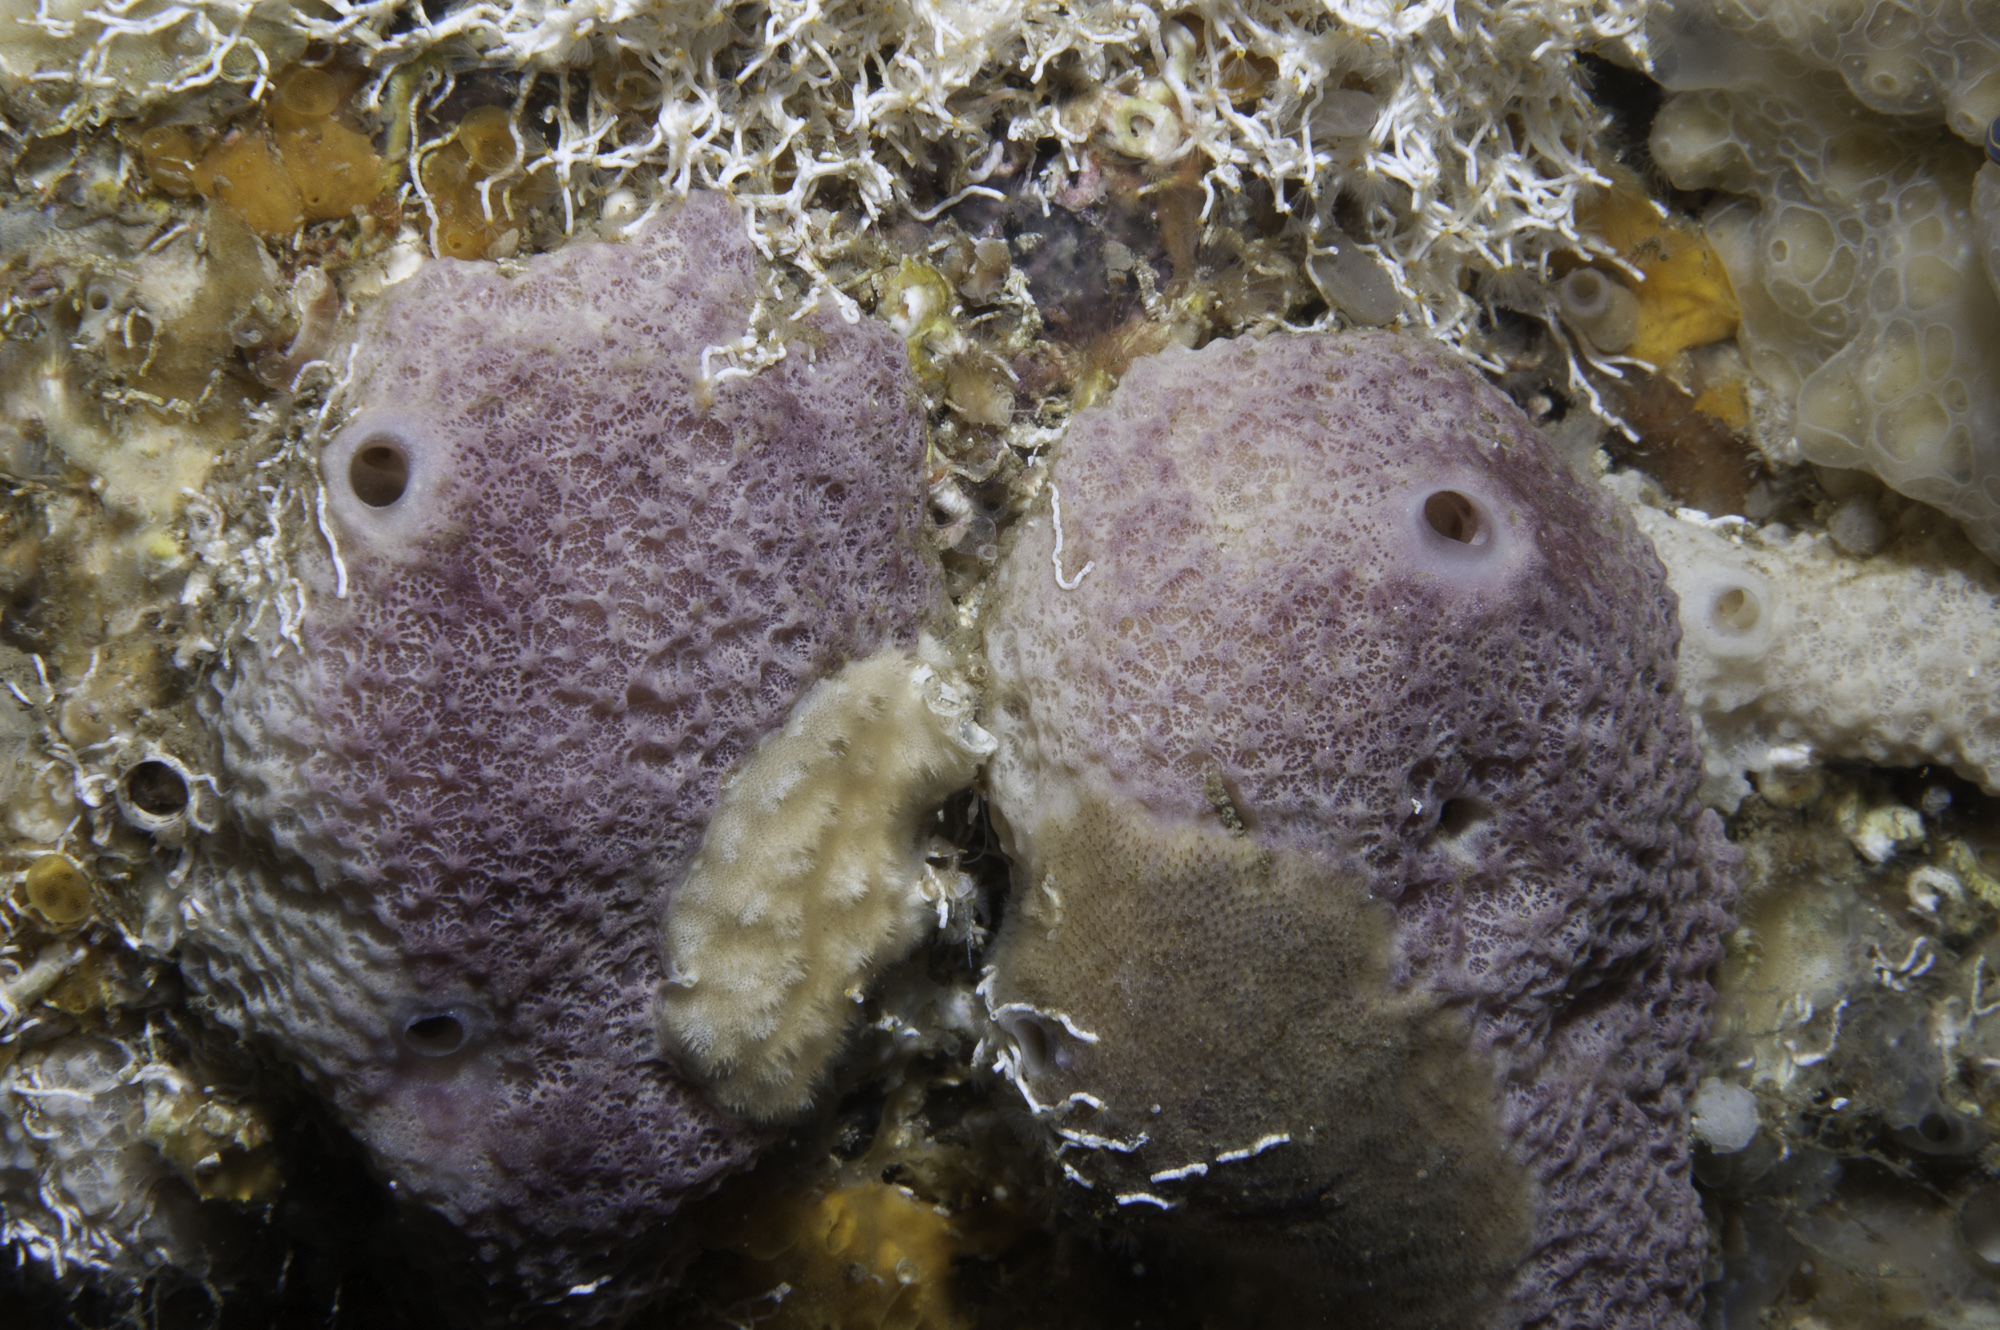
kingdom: Animalia
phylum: Porifera
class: Demospongiae
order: Dictyoceratida
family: Irciniidae
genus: Ircinia
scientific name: Ircinia variabilis
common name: Variable loggerhead sponge
